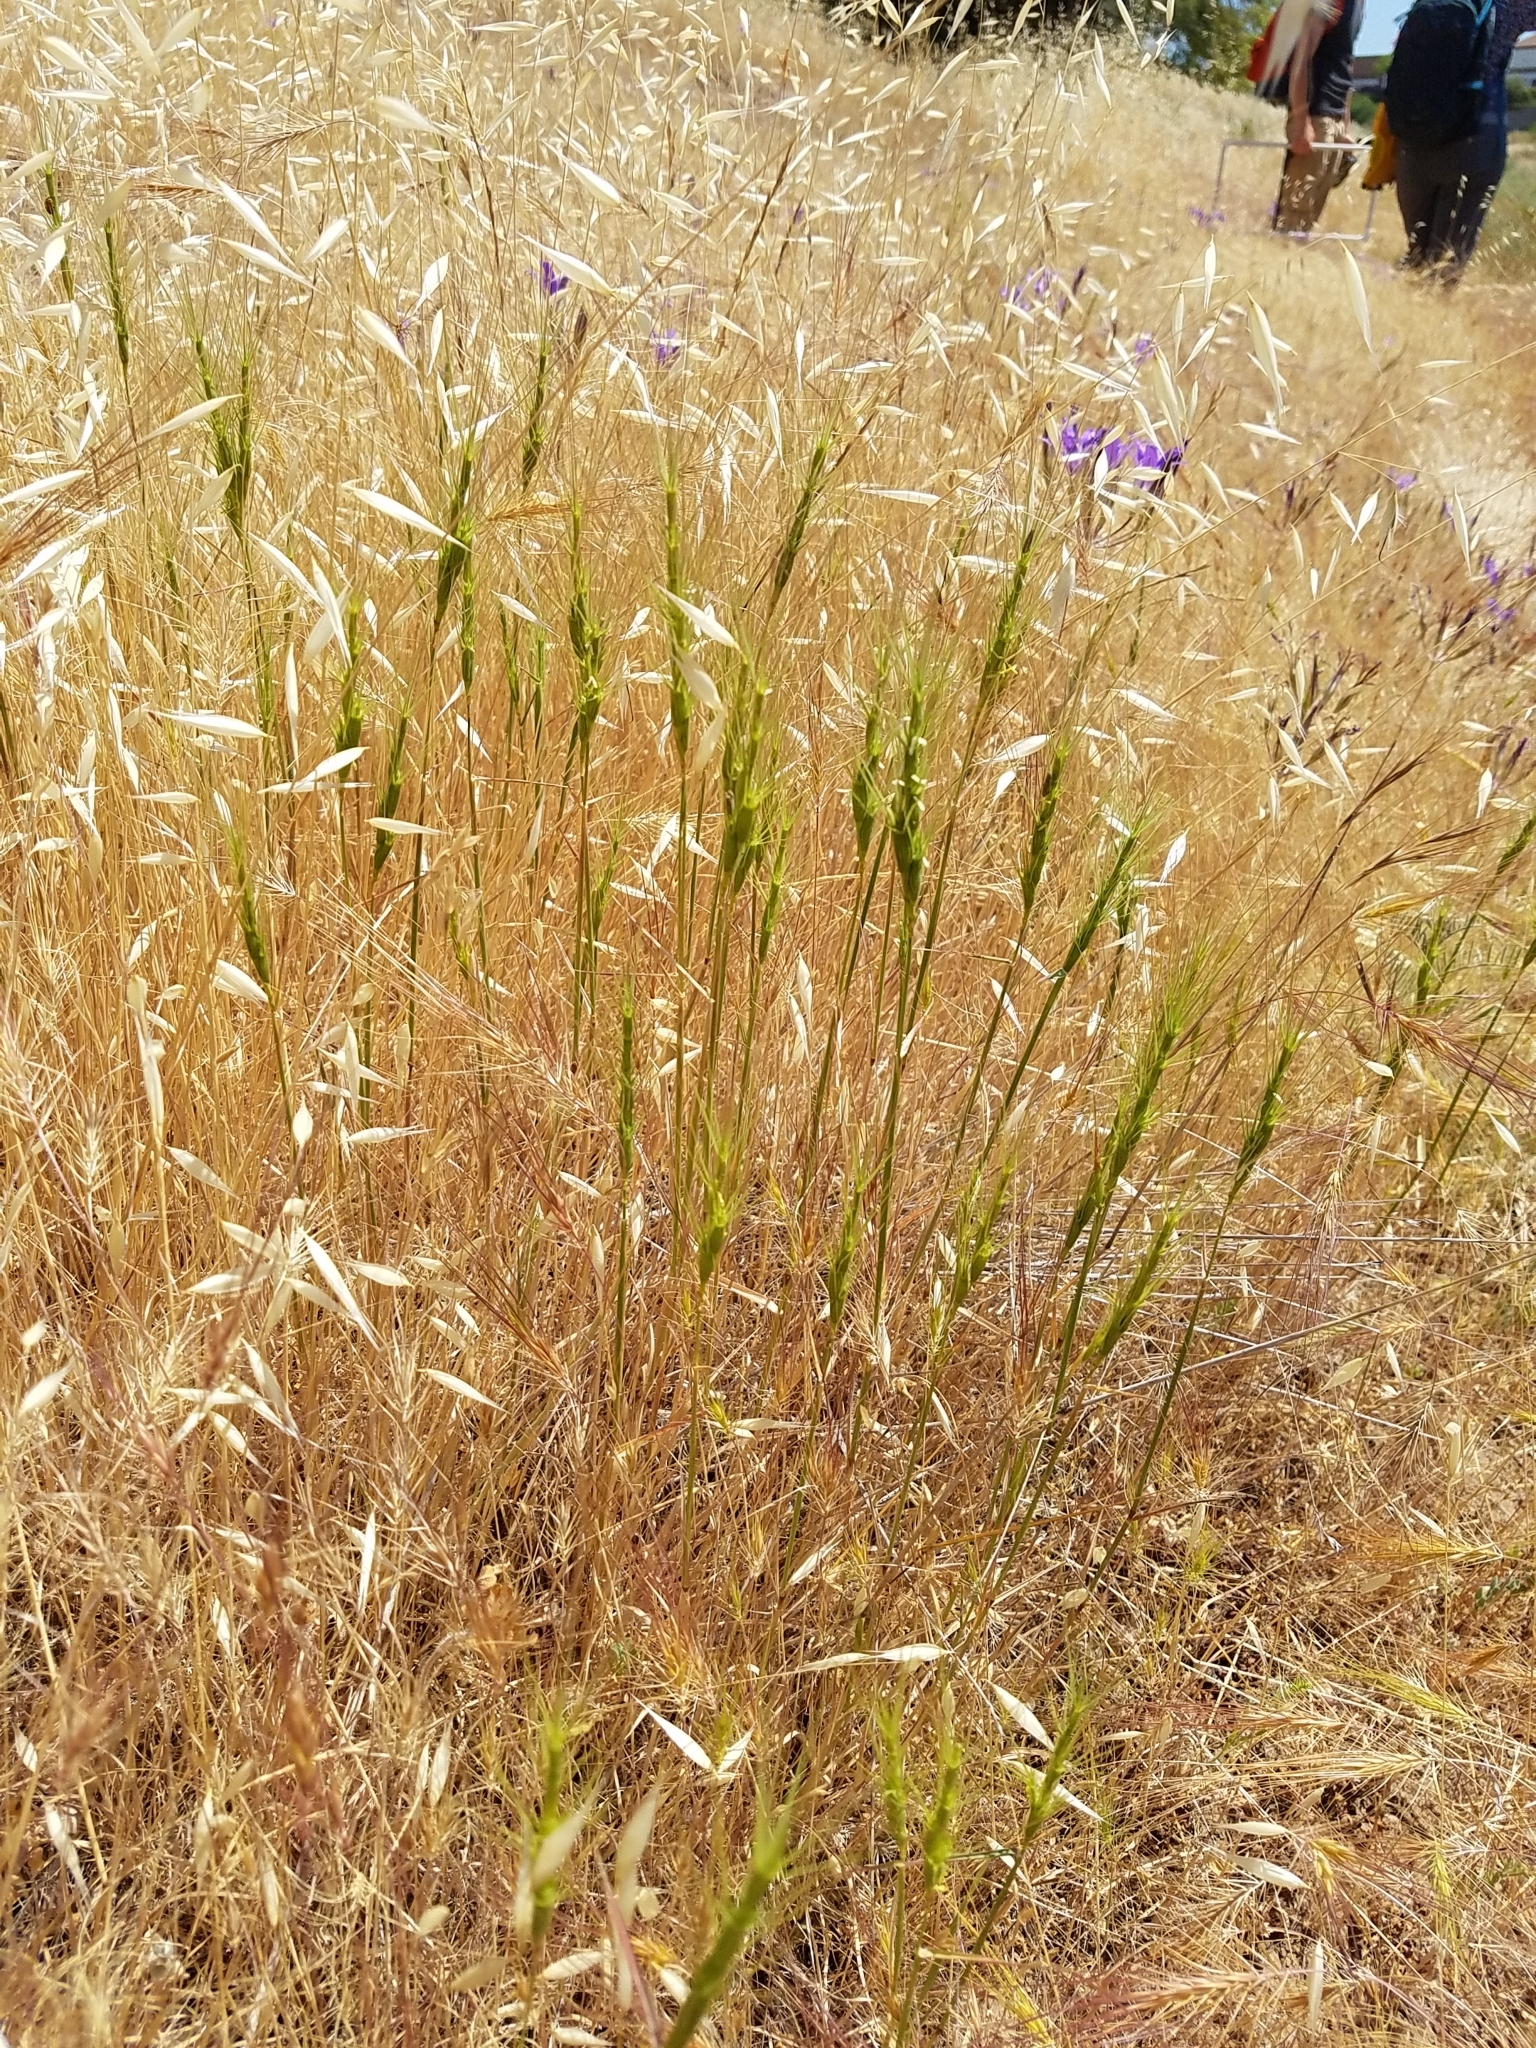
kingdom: Plantae
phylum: Tracheophyta
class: Liliopsida
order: Poales
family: Poaceae
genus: Aegilops
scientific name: Aegilops triuncialis
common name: Barb goat grass
